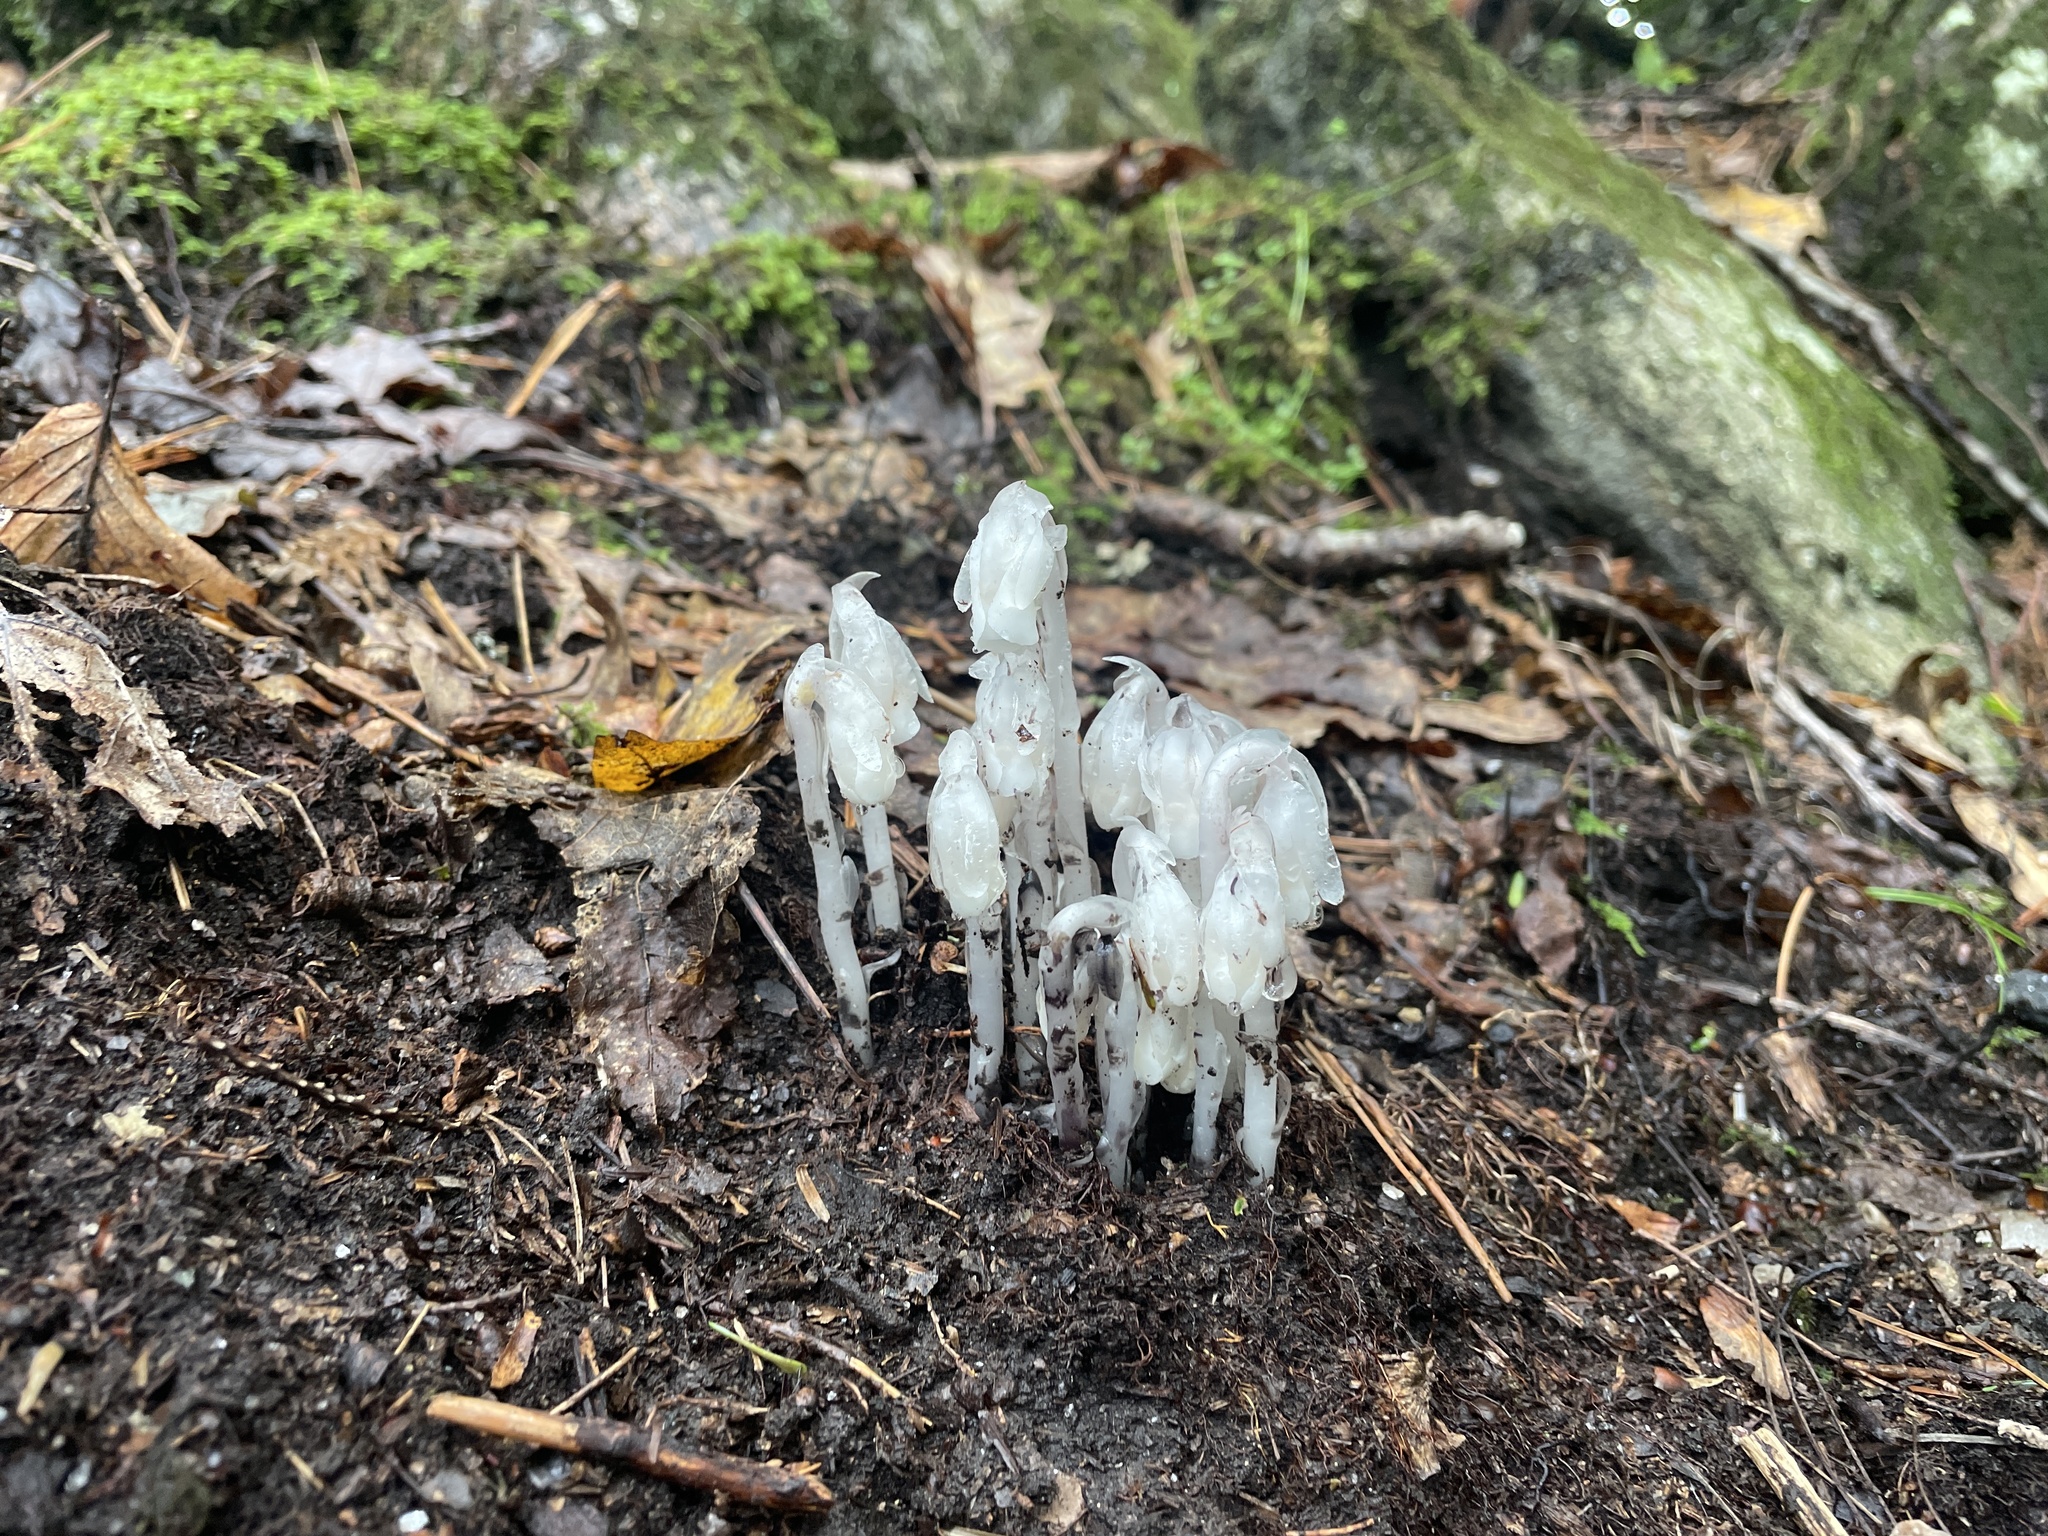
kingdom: Plantae
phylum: Tracheophyta
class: Magnoliopsida
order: Ericales
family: Ericaceae
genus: Monotropa
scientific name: Monotropa uniflora
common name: Convulsion root
